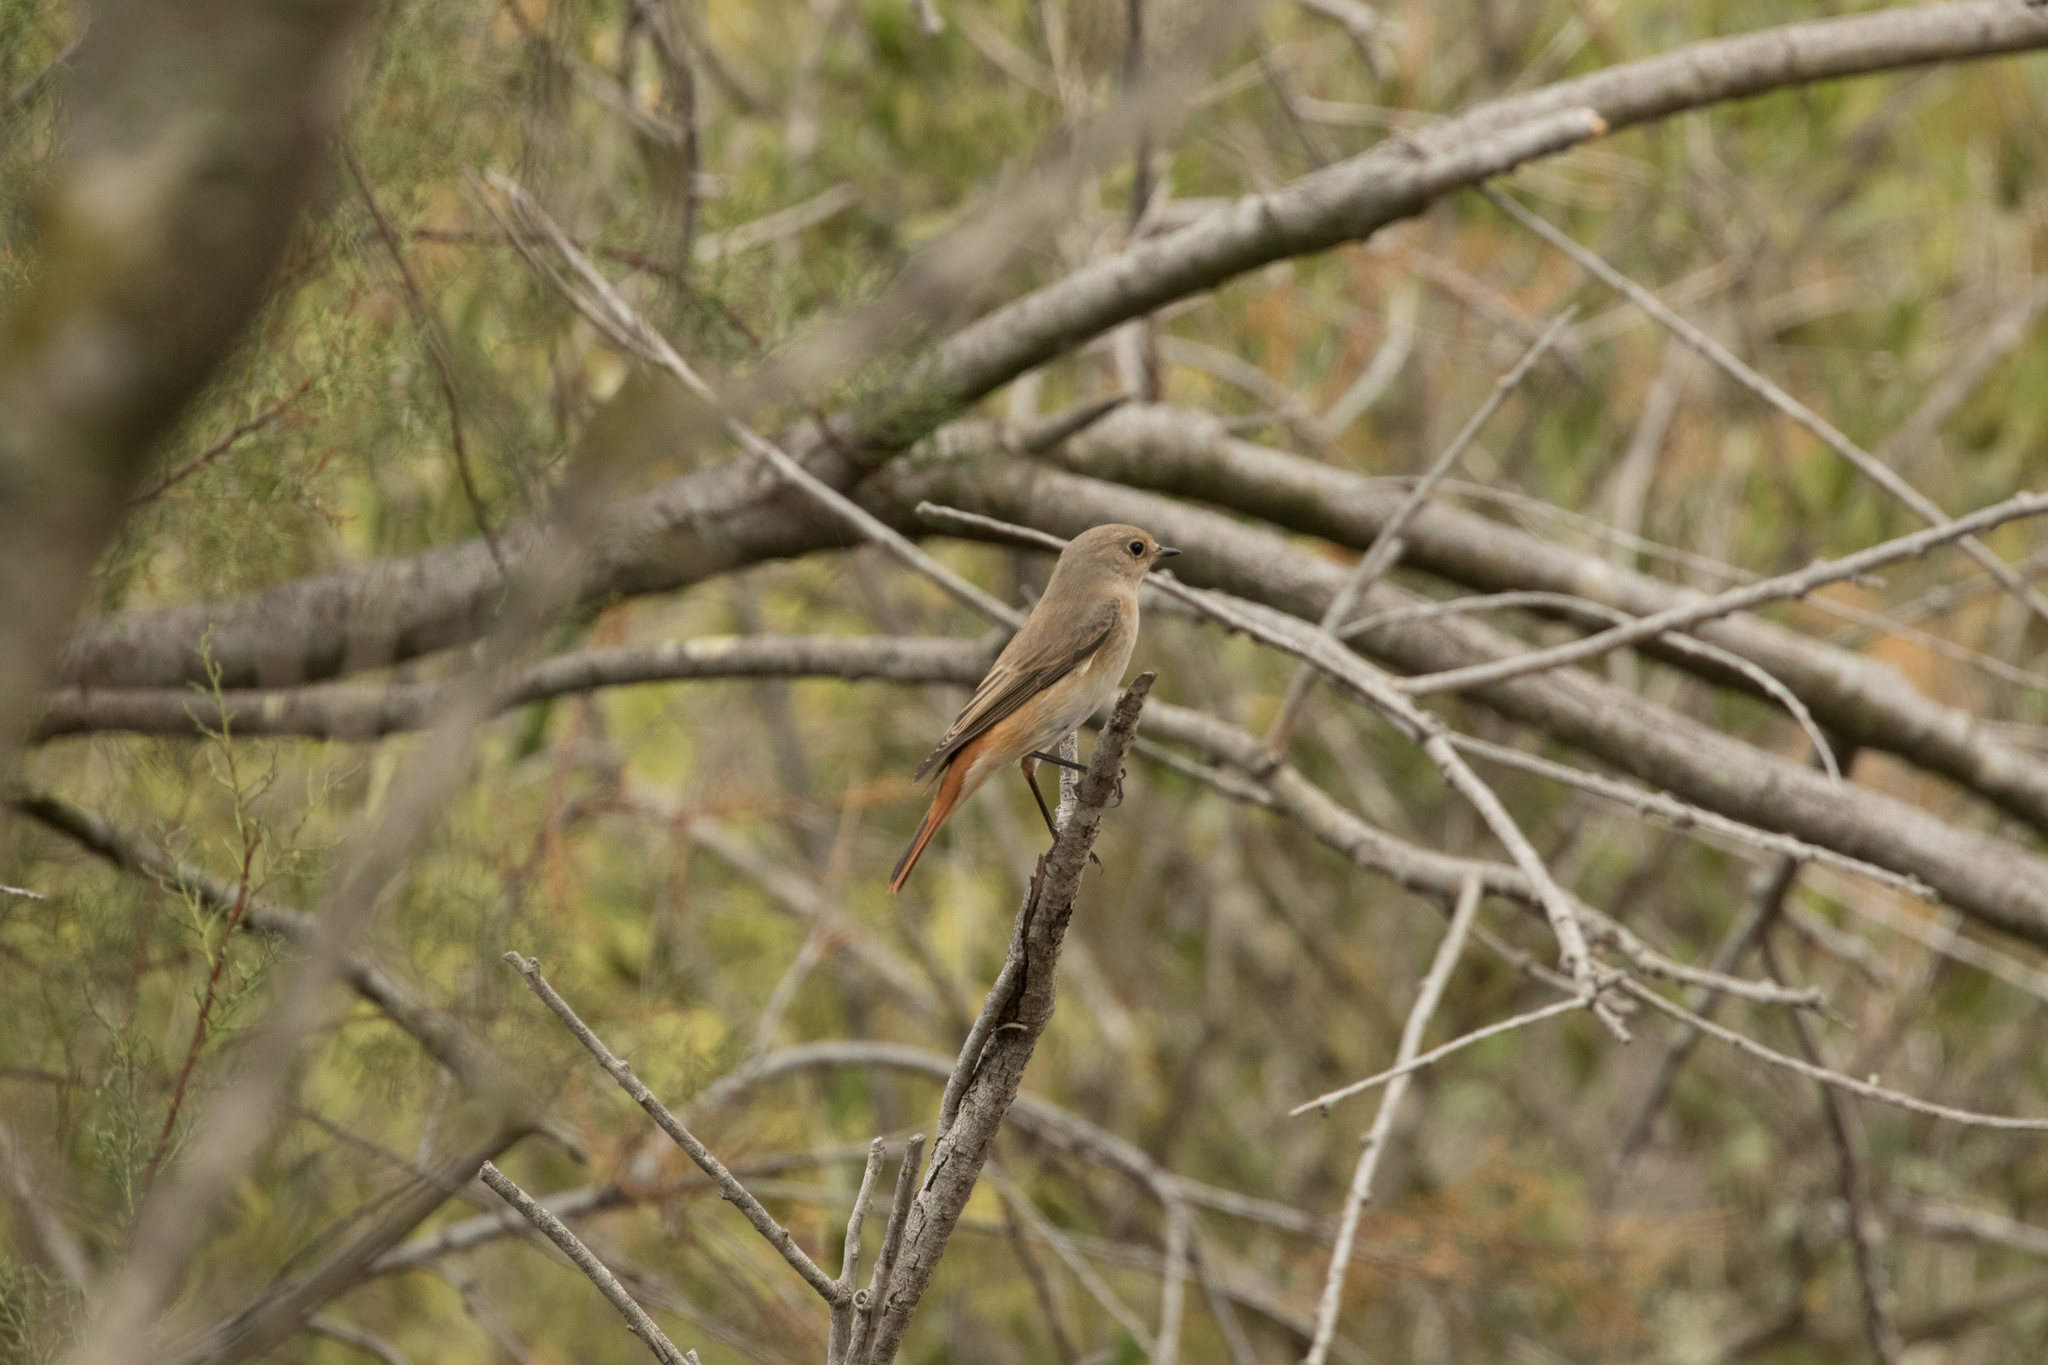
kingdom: Animalia
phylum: Chordata
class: Aves
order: Passeriformes
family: Muscicapidae
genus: Phoenicurus
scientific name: Phoenicurus phoenicurus
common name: Common redstart
